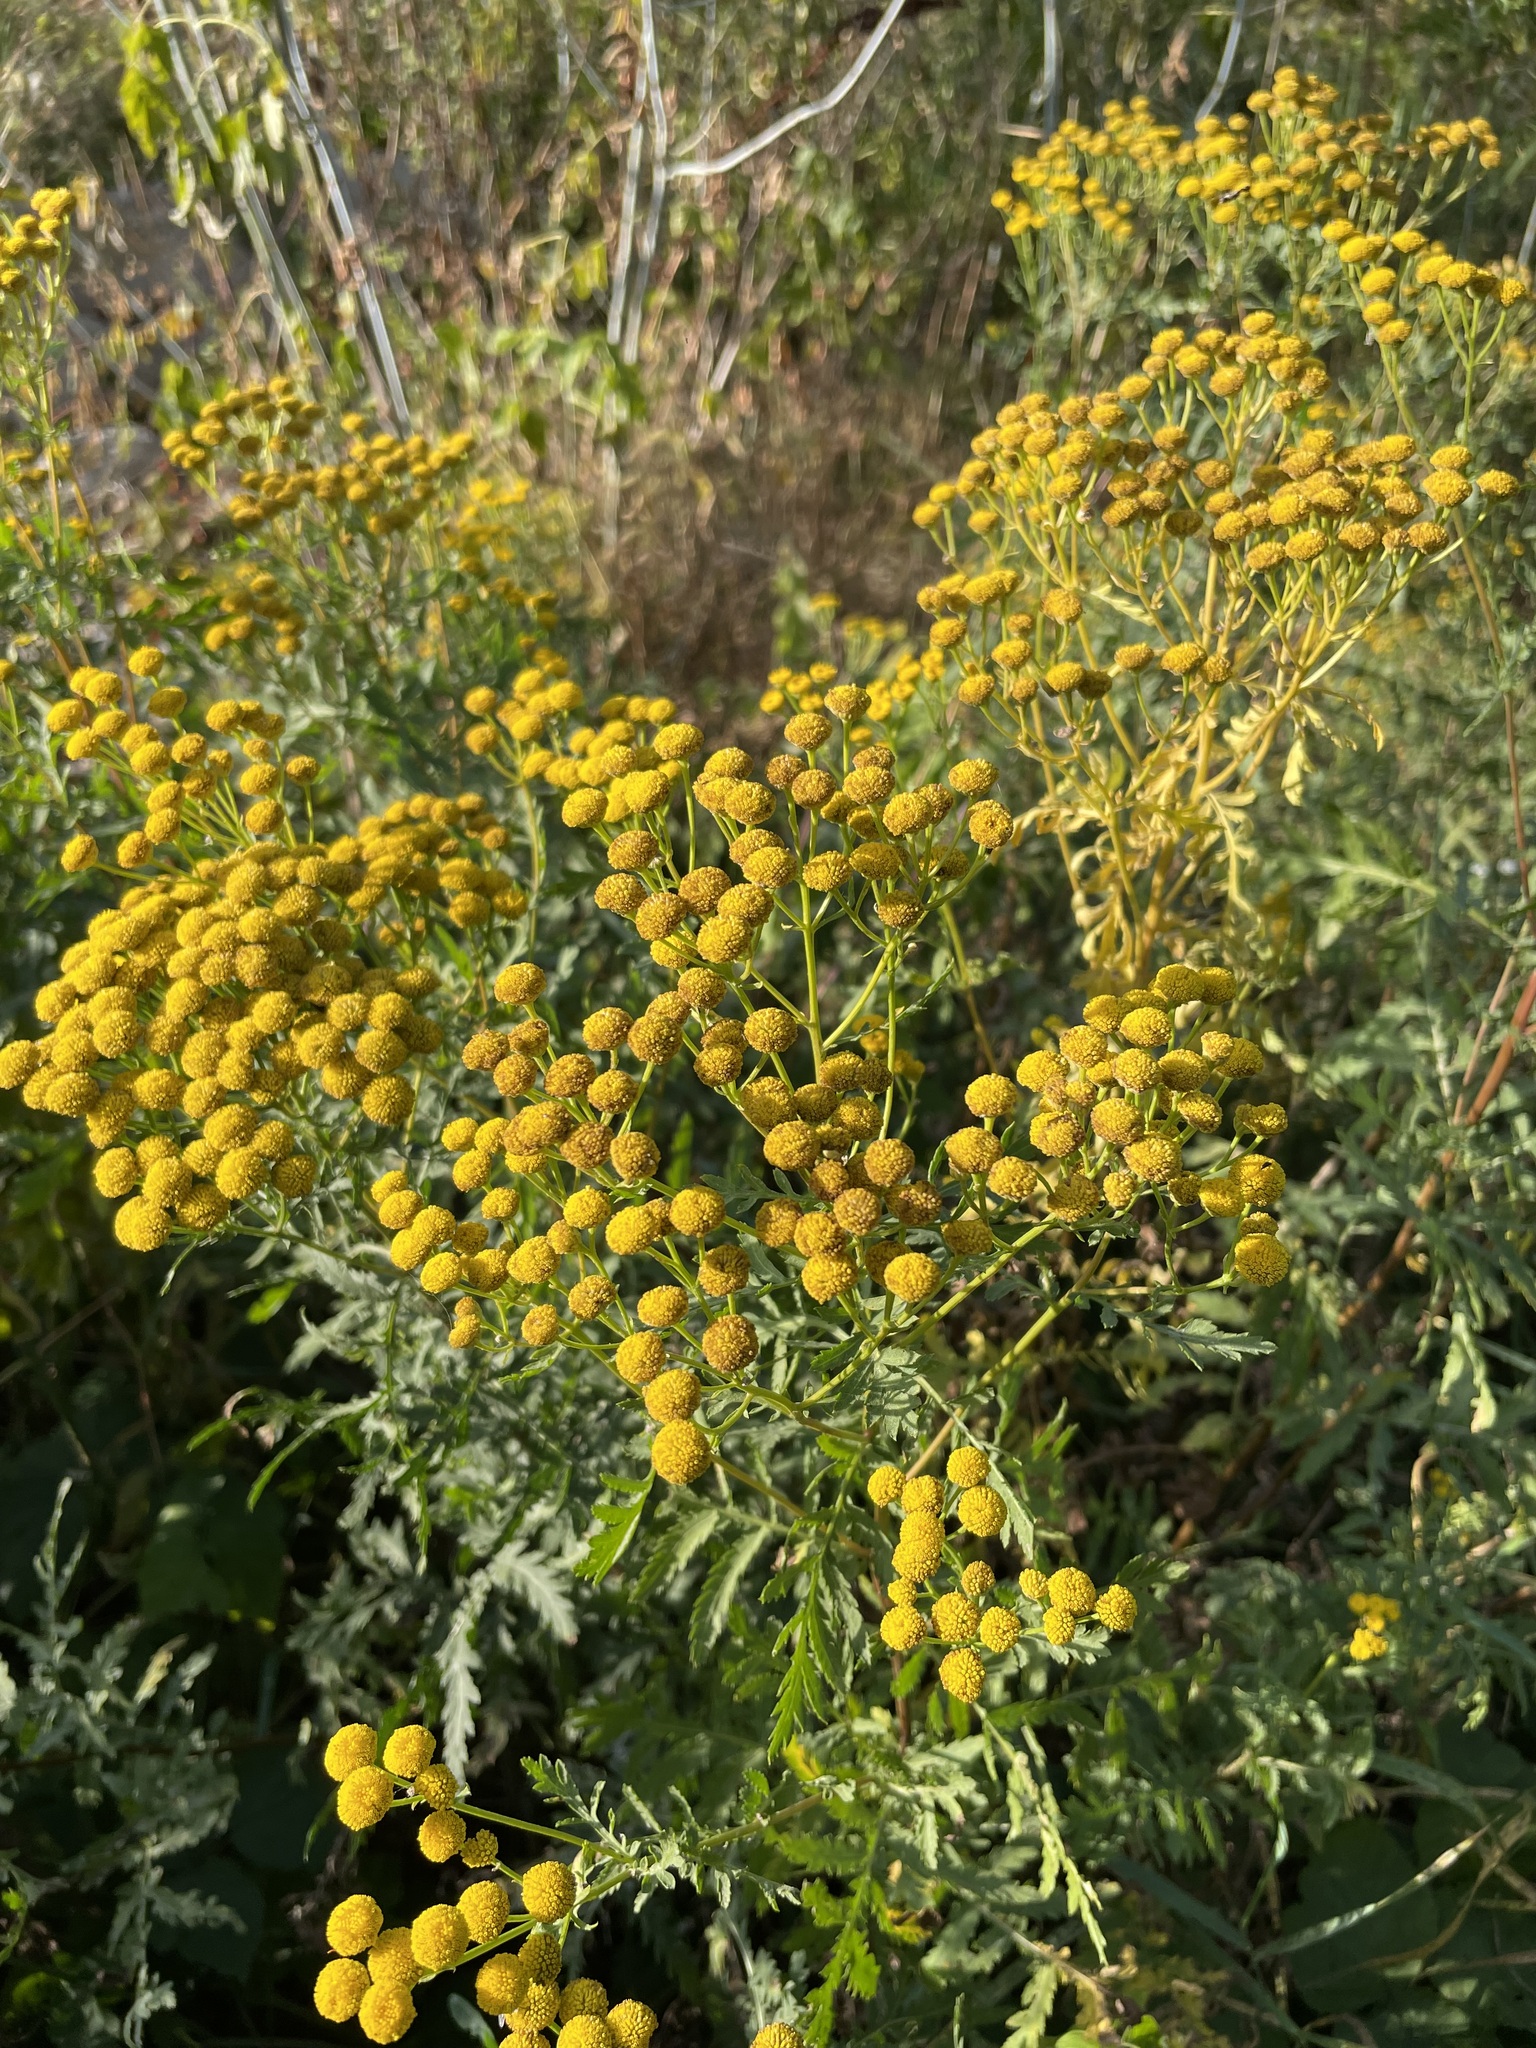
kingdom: Plantae
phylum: Tracheophyta
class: Magnoliopsida
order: Asterales
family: Asteraceae
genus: Tanacetum
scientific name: Tanacetum vulgare
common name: Common tansy
